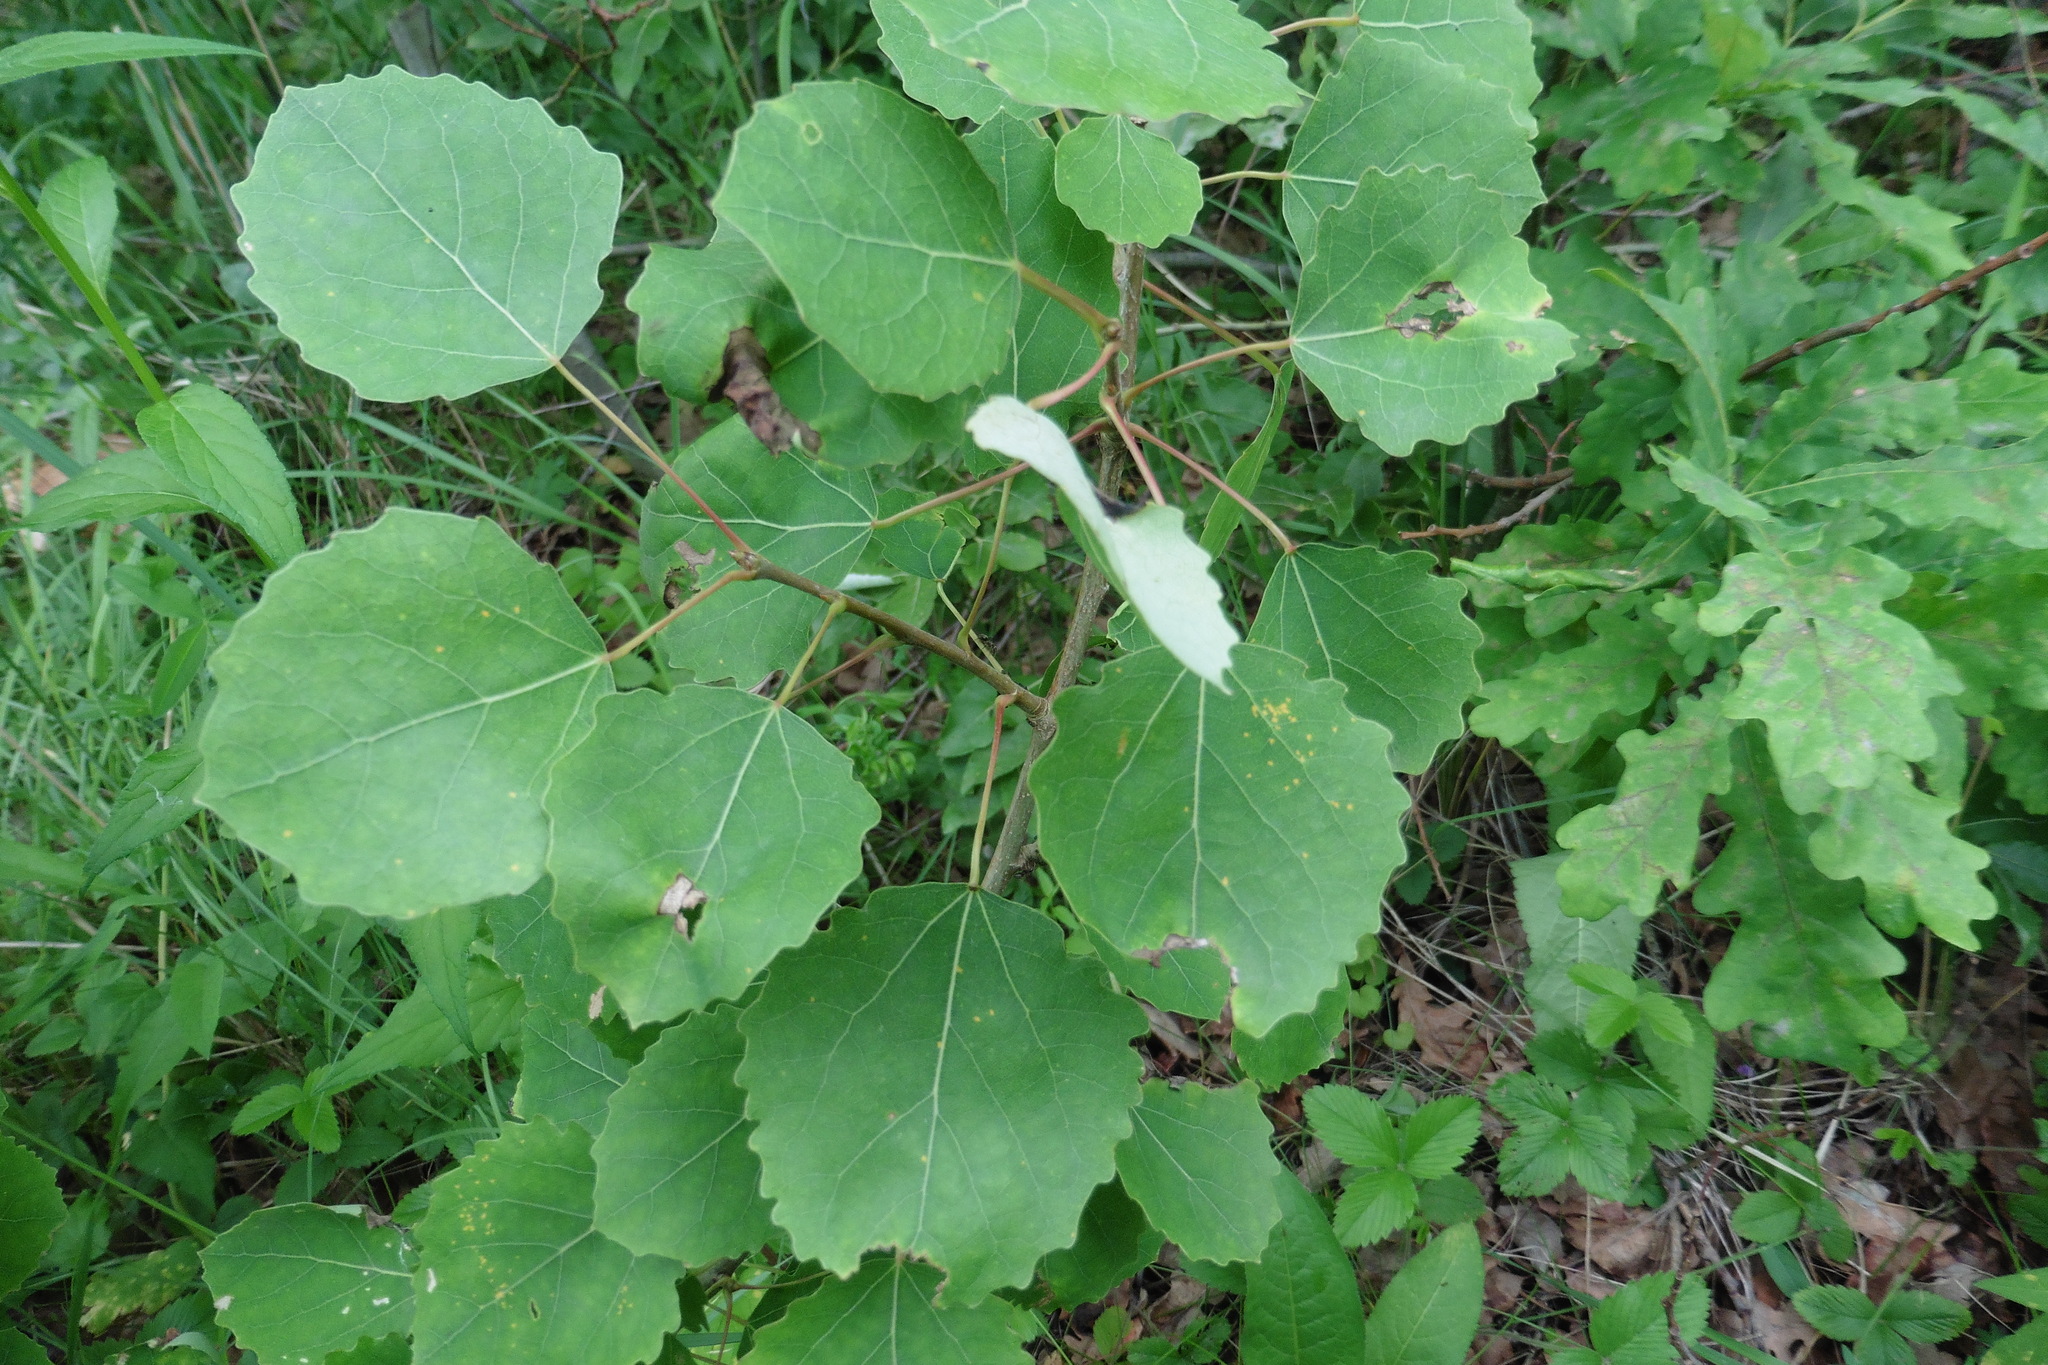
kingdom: Plantae
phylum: Tracheophyta
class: Magnoliopsida
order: Malpighiales
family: Salicaceae
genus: Populus
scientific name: Populus tremula
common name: European aspen
